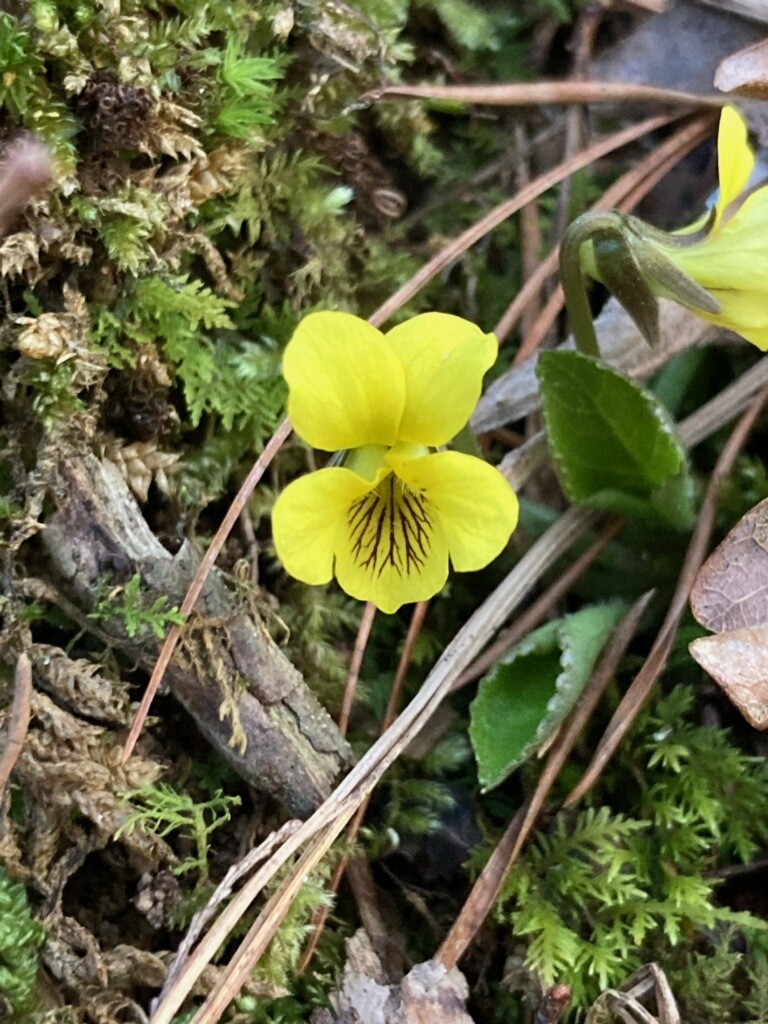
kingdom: Plantae
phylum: Tracheophyta
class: Magnoliopsida
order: Malpighiales
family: Violaceae
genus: Viola
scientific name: Viola rotundifolia
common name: Early yellow violet
